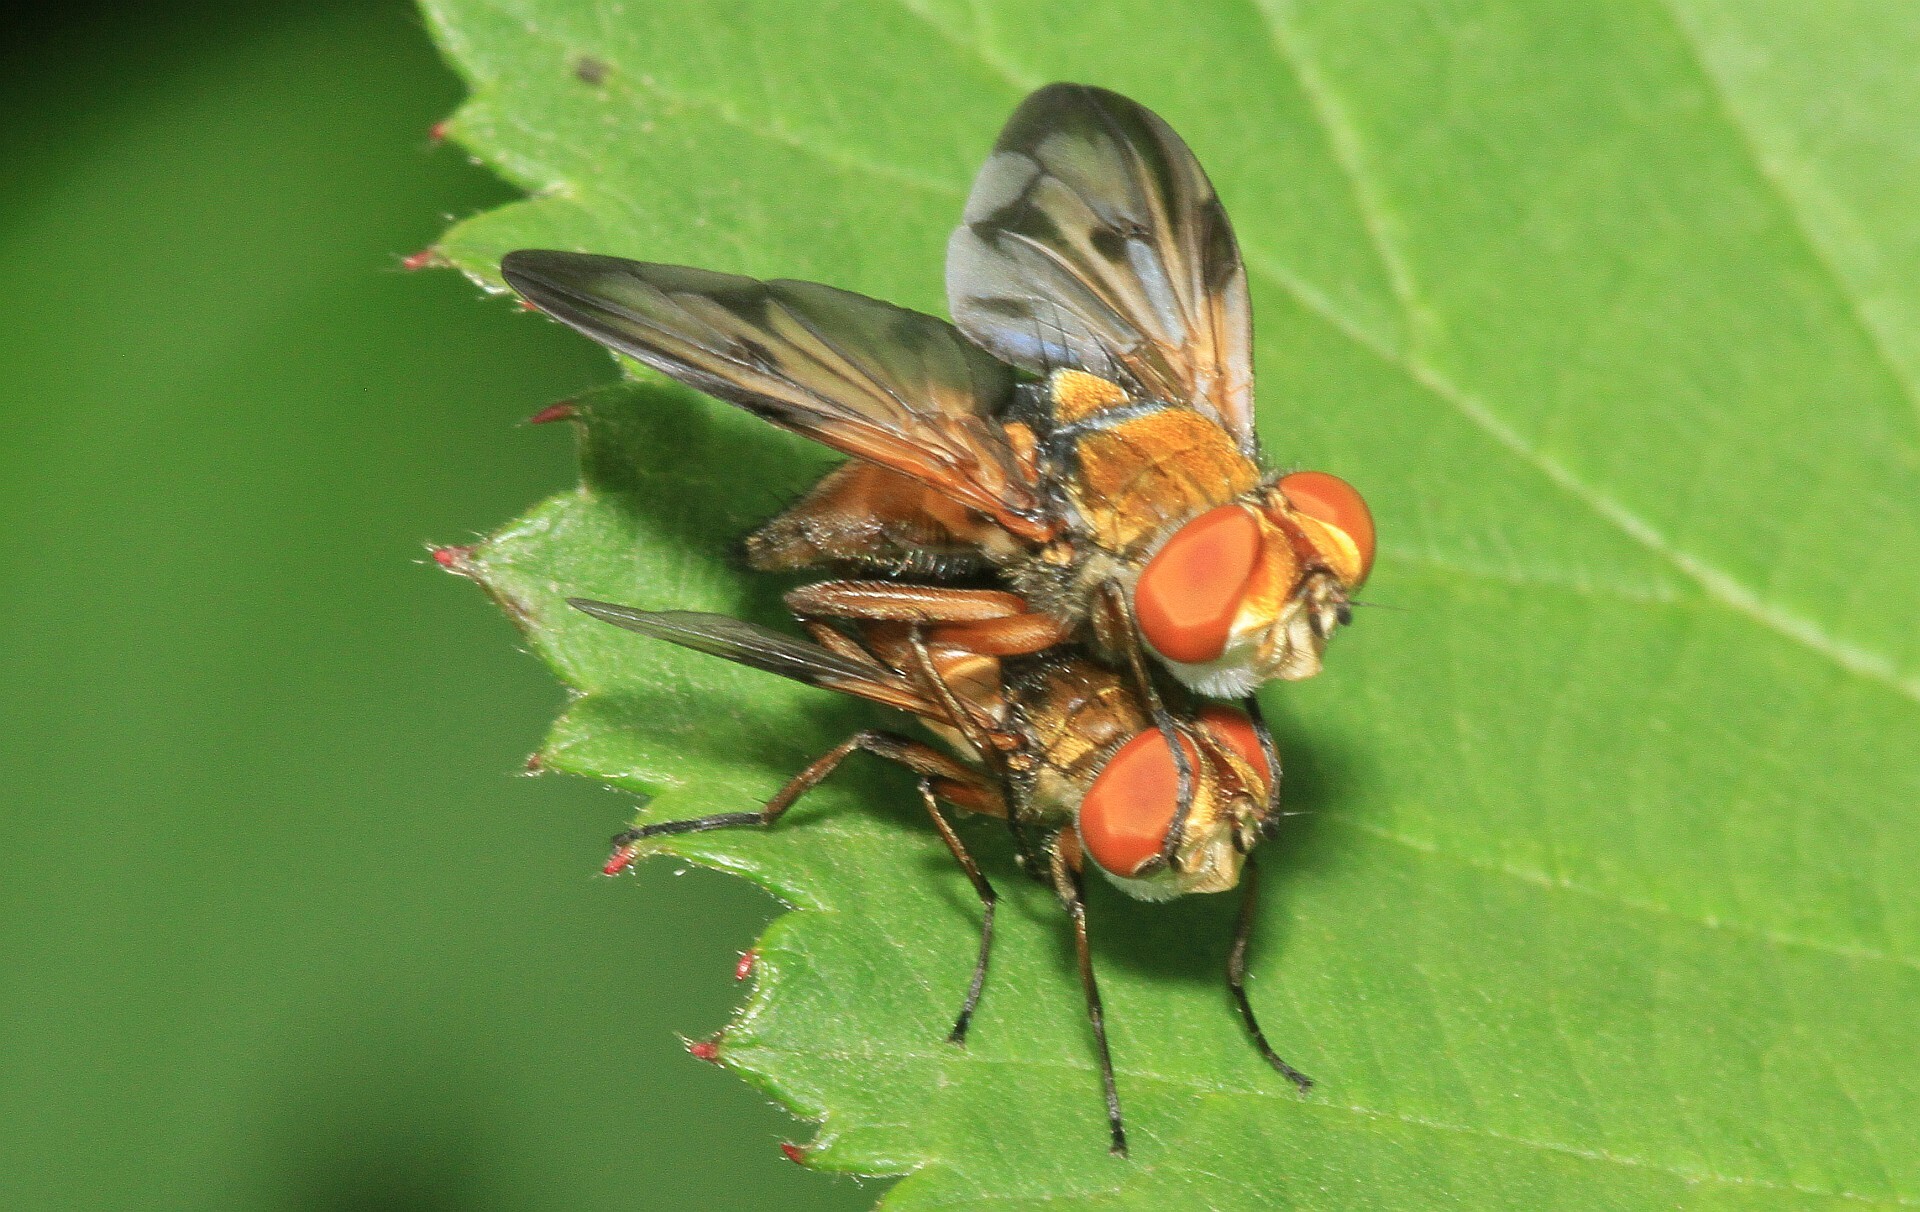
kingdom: Animalia
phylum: Arthropoda
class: Insecta
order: Diptera
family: Tachinidae
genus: Ectophasia
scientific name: Ectophasia crassipennis
